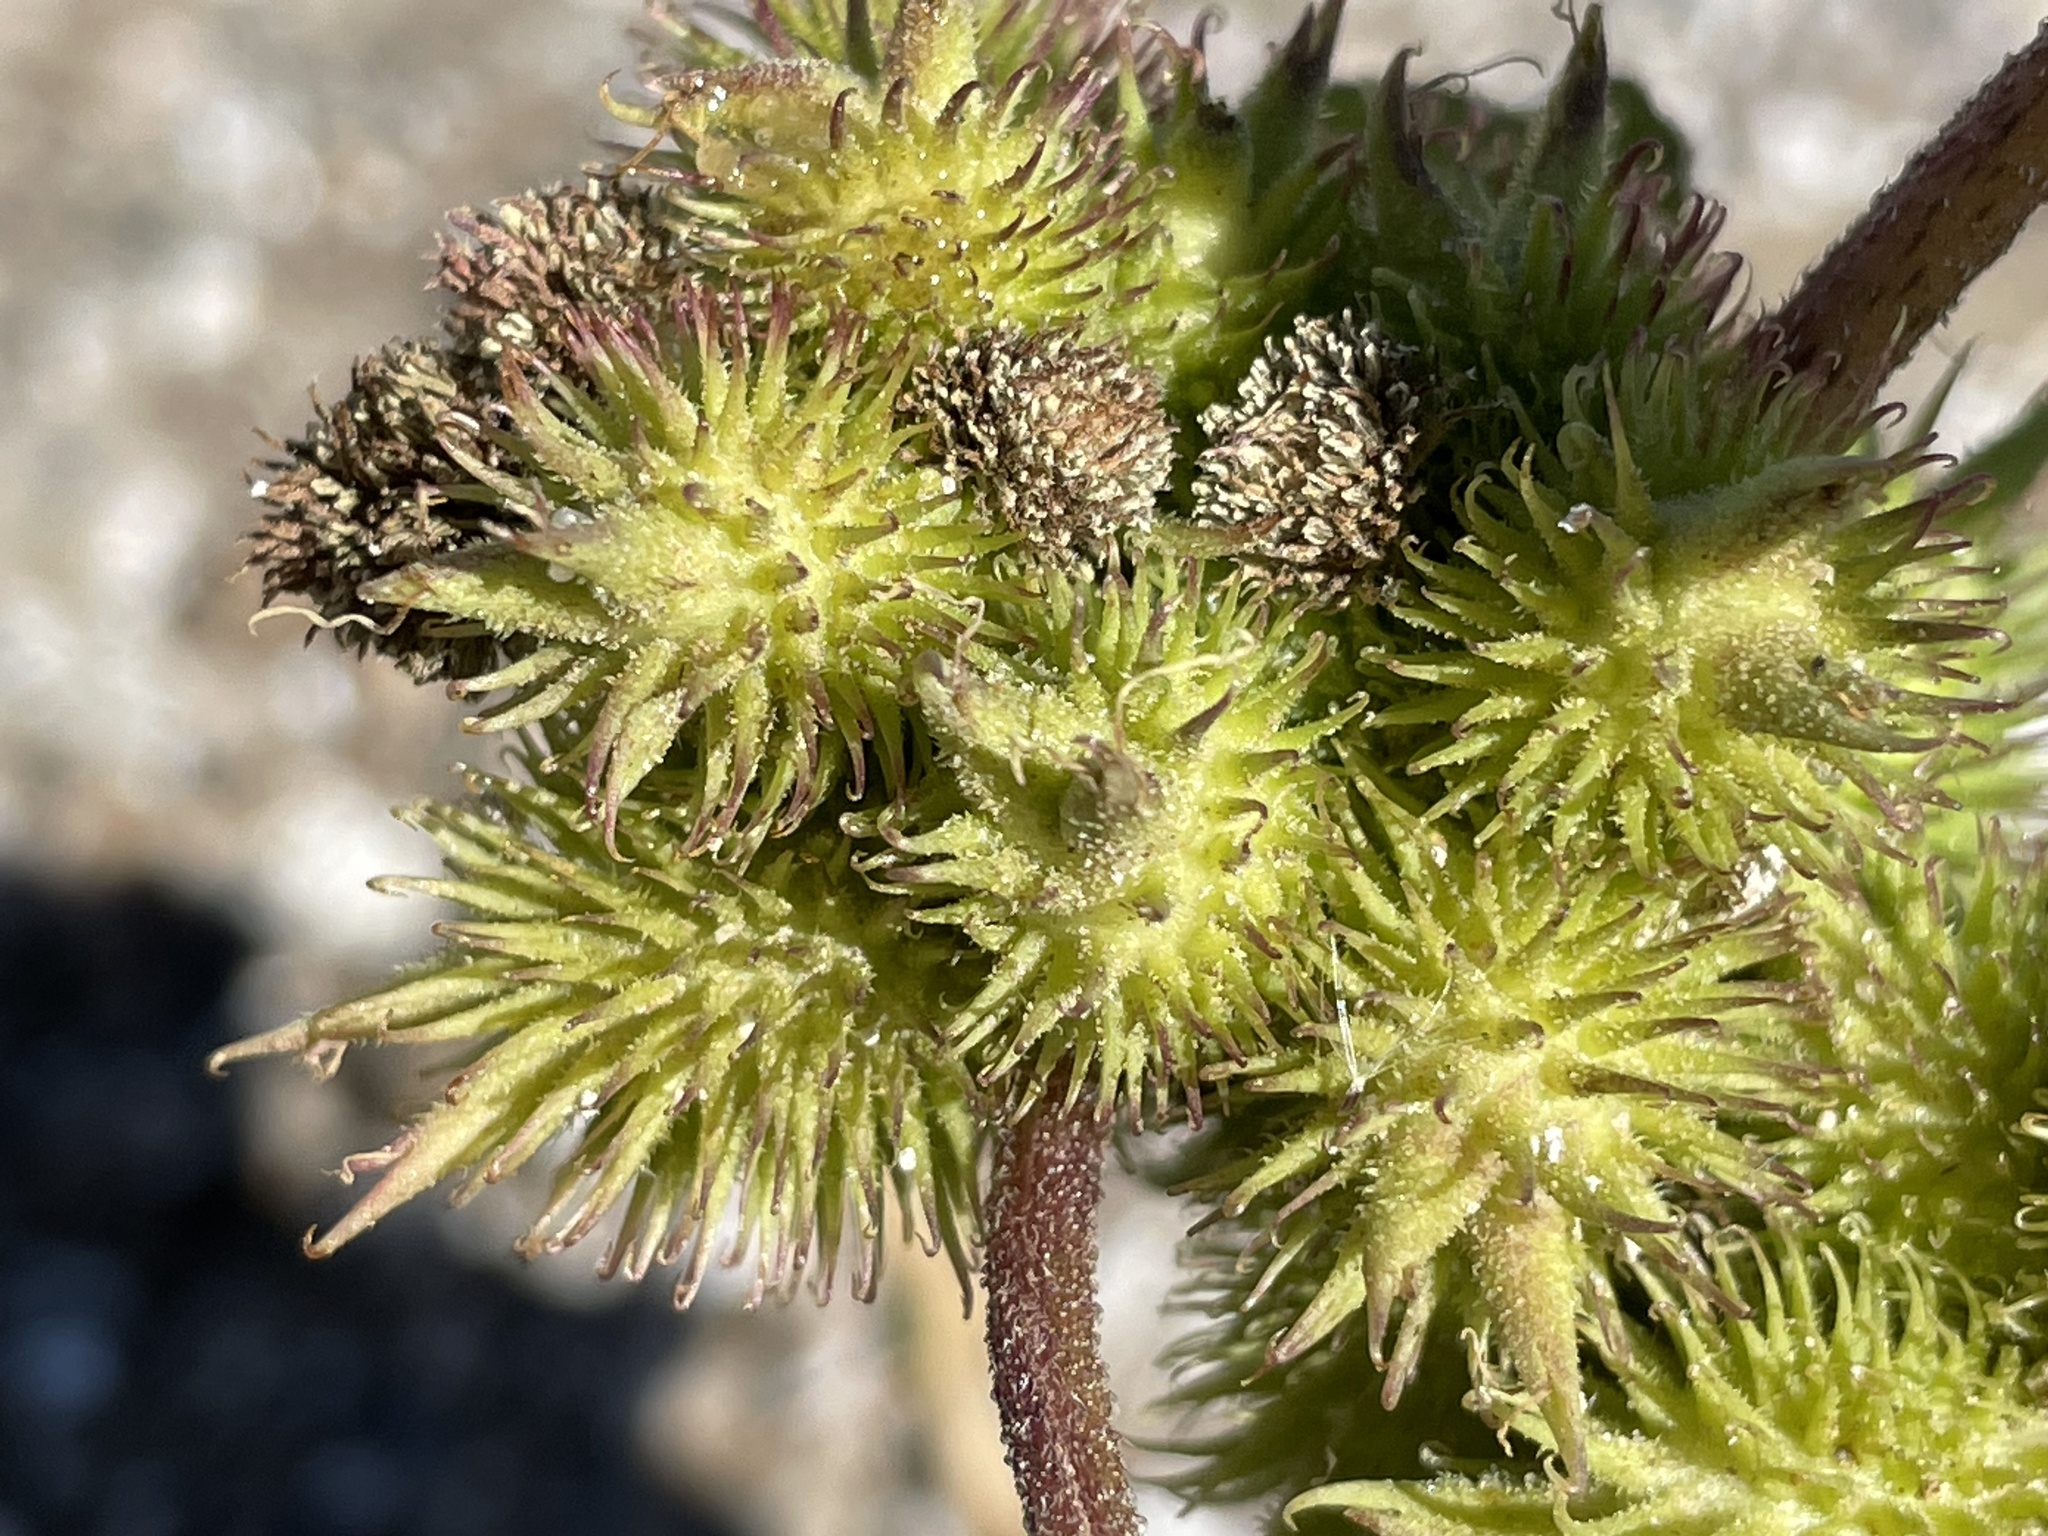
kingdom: Plantae
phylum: Tracheophyta
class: Magnoliopsida
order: Asterales
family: Asteraceae
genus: Xanthium
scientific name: Xanthium strumarium
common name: Rough cocklebur
